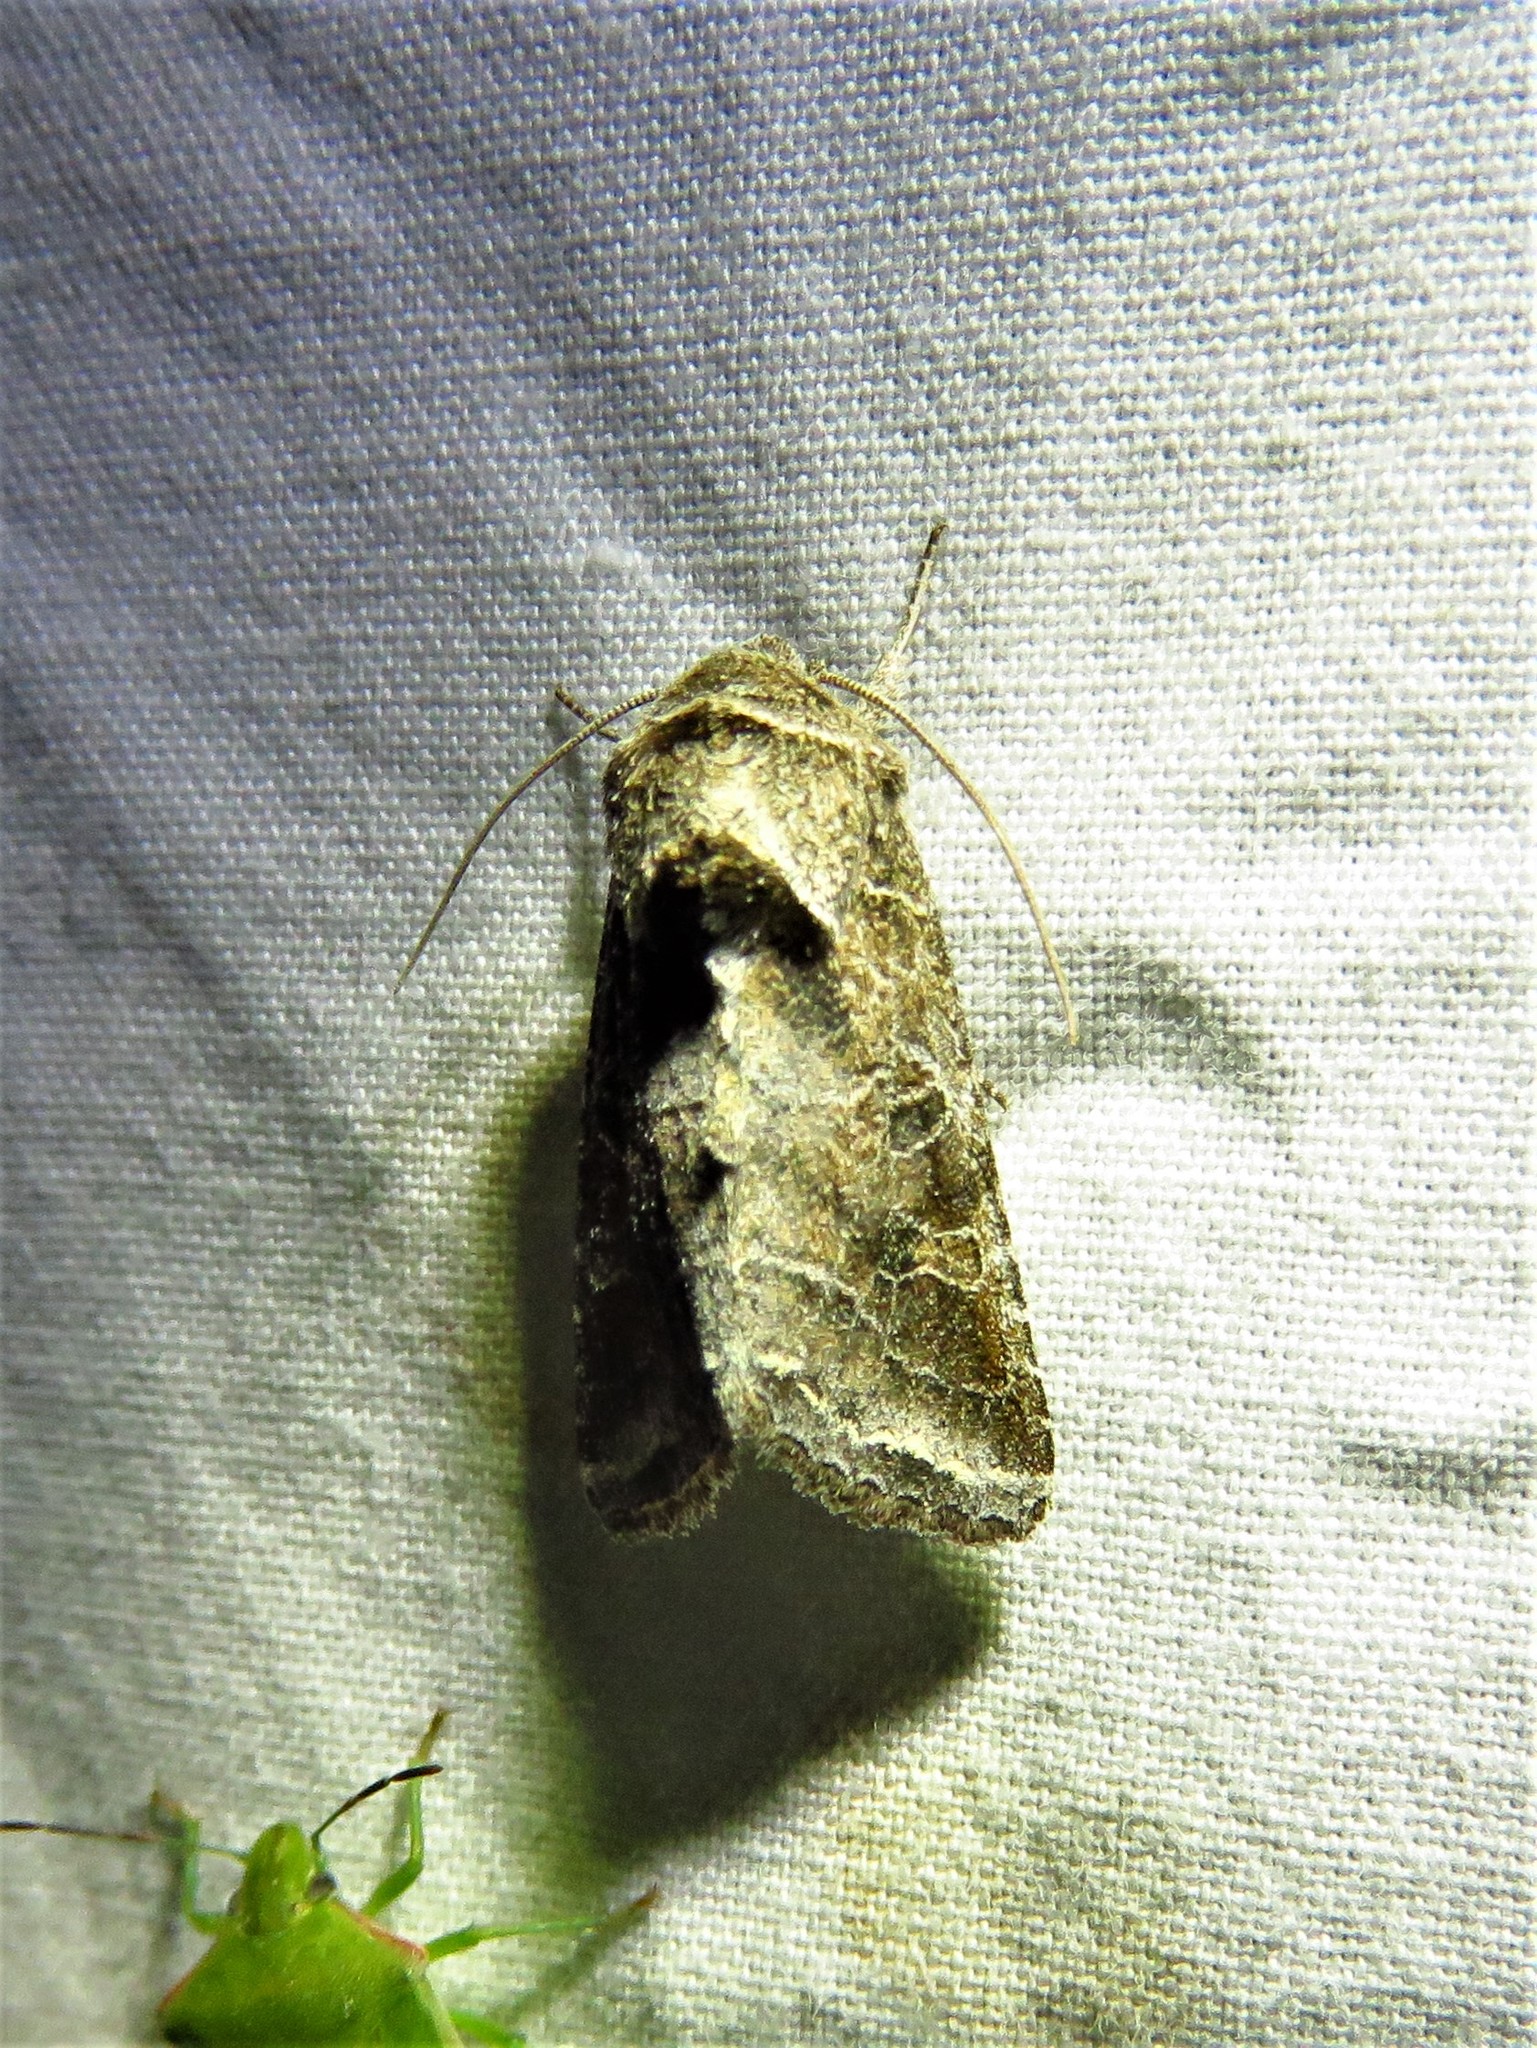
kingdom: Animalia
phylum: Arthropoda
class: Insecta
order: Lepidoptera
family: Noctuidae
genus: Lacinipolia
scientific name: Lacinipolia erecta
